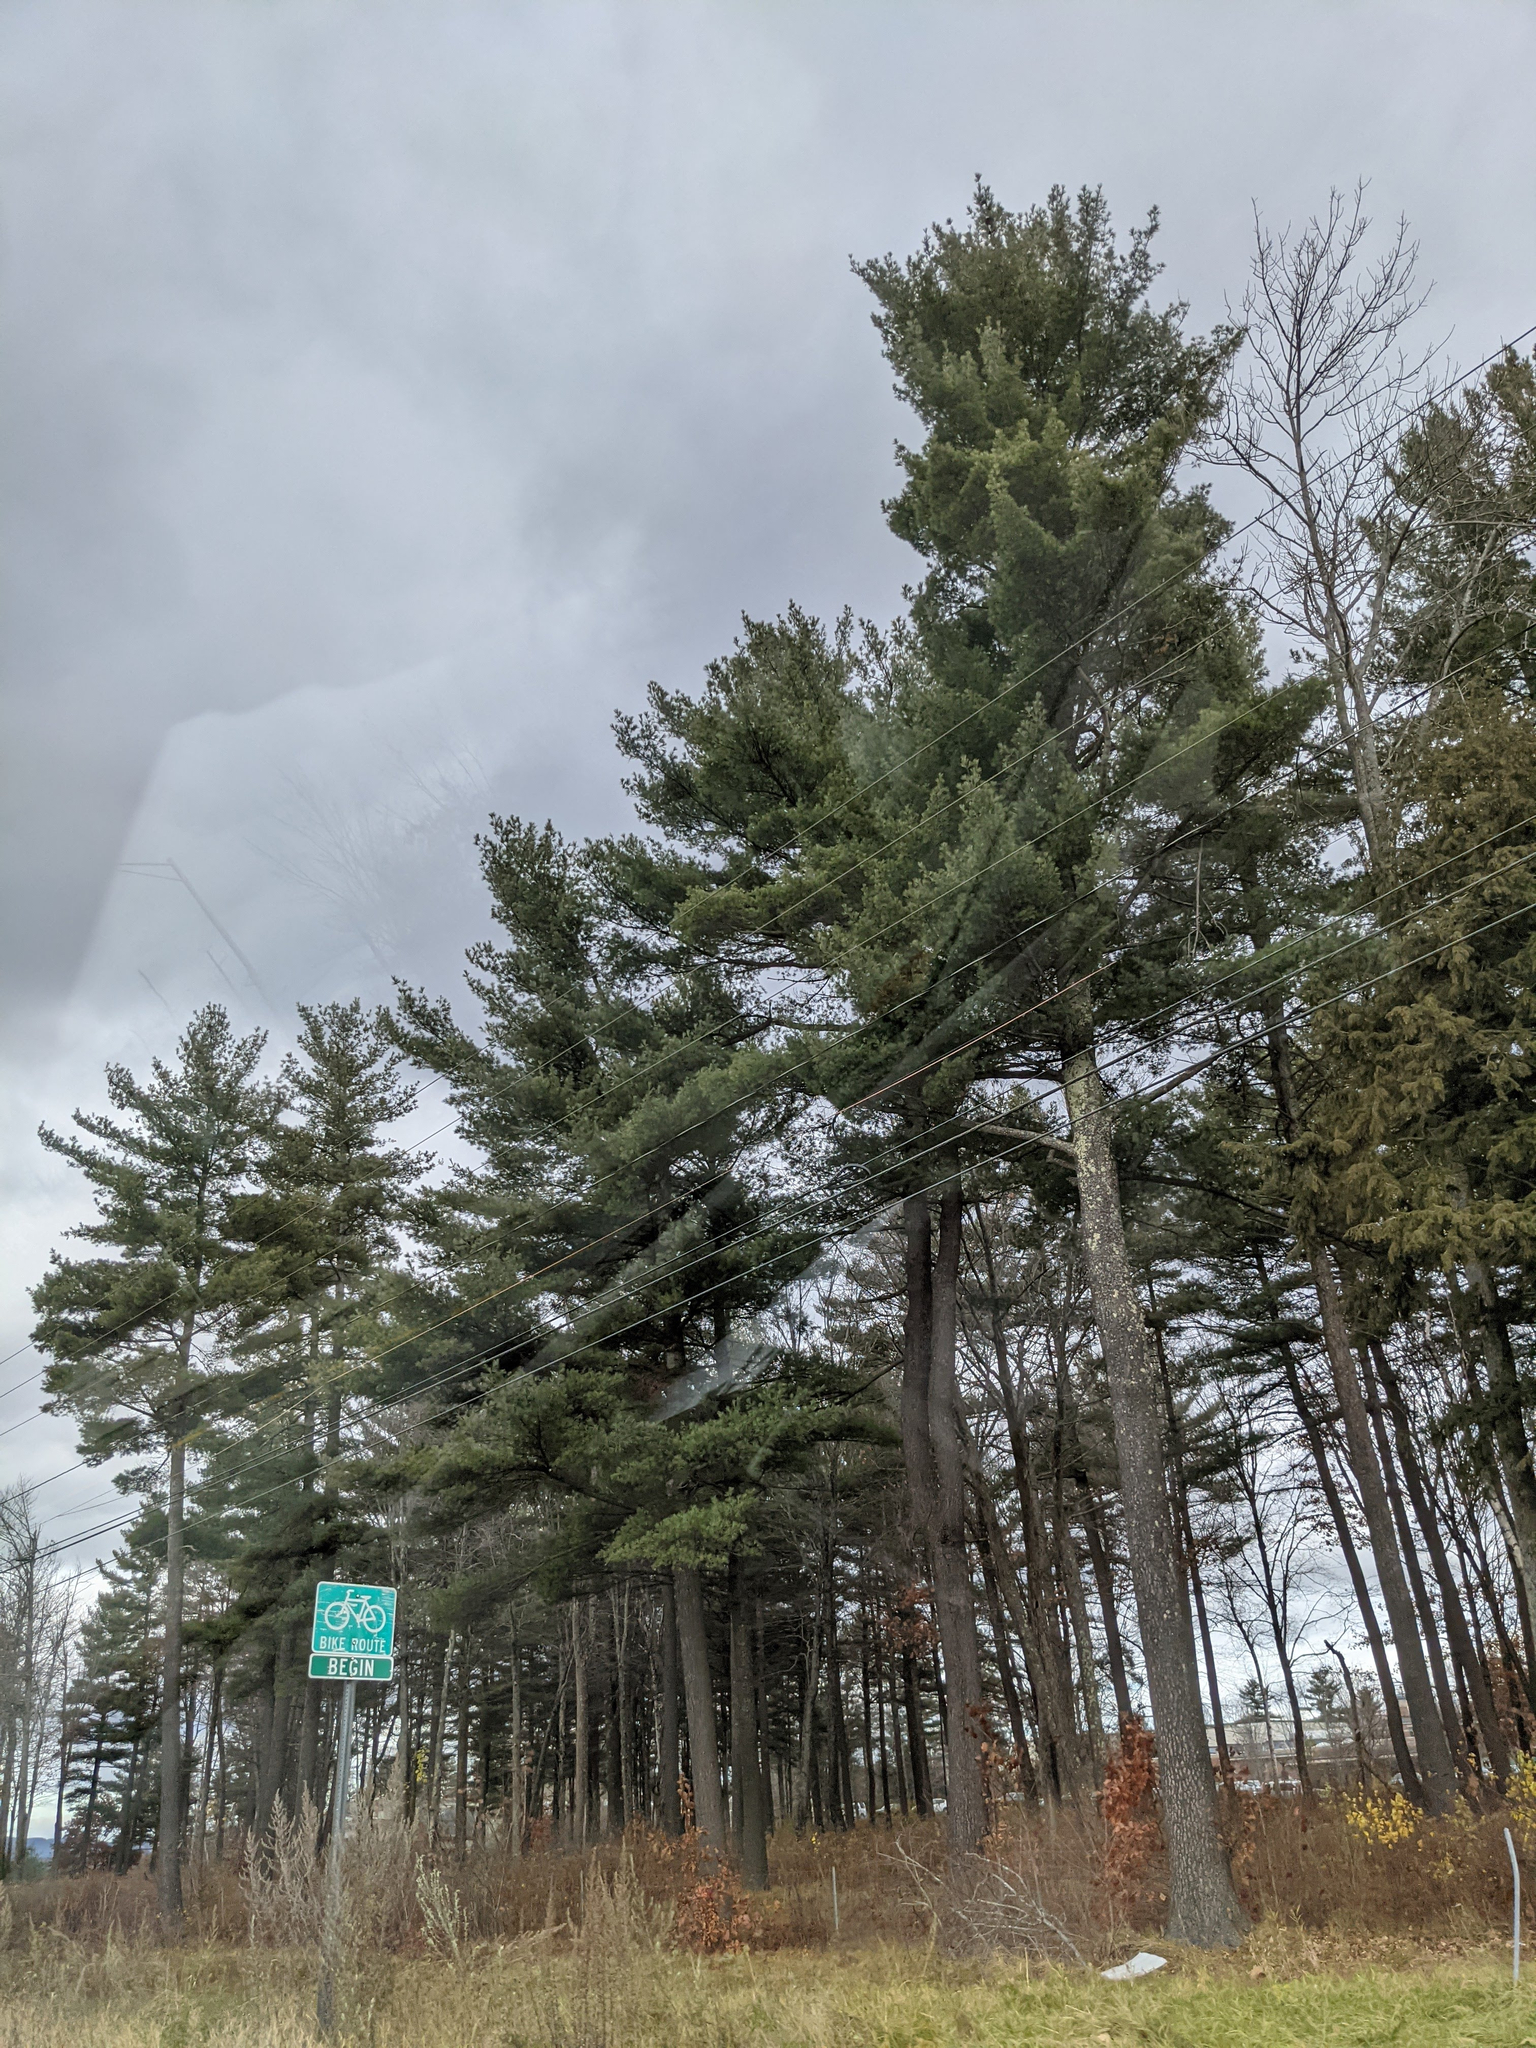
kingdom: Plantae
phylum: Tracheophyta
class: Pinopsida
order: Pinales
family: Pinaceae
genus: Pinus
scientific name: Pinus strobus
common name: Weymouth pine
